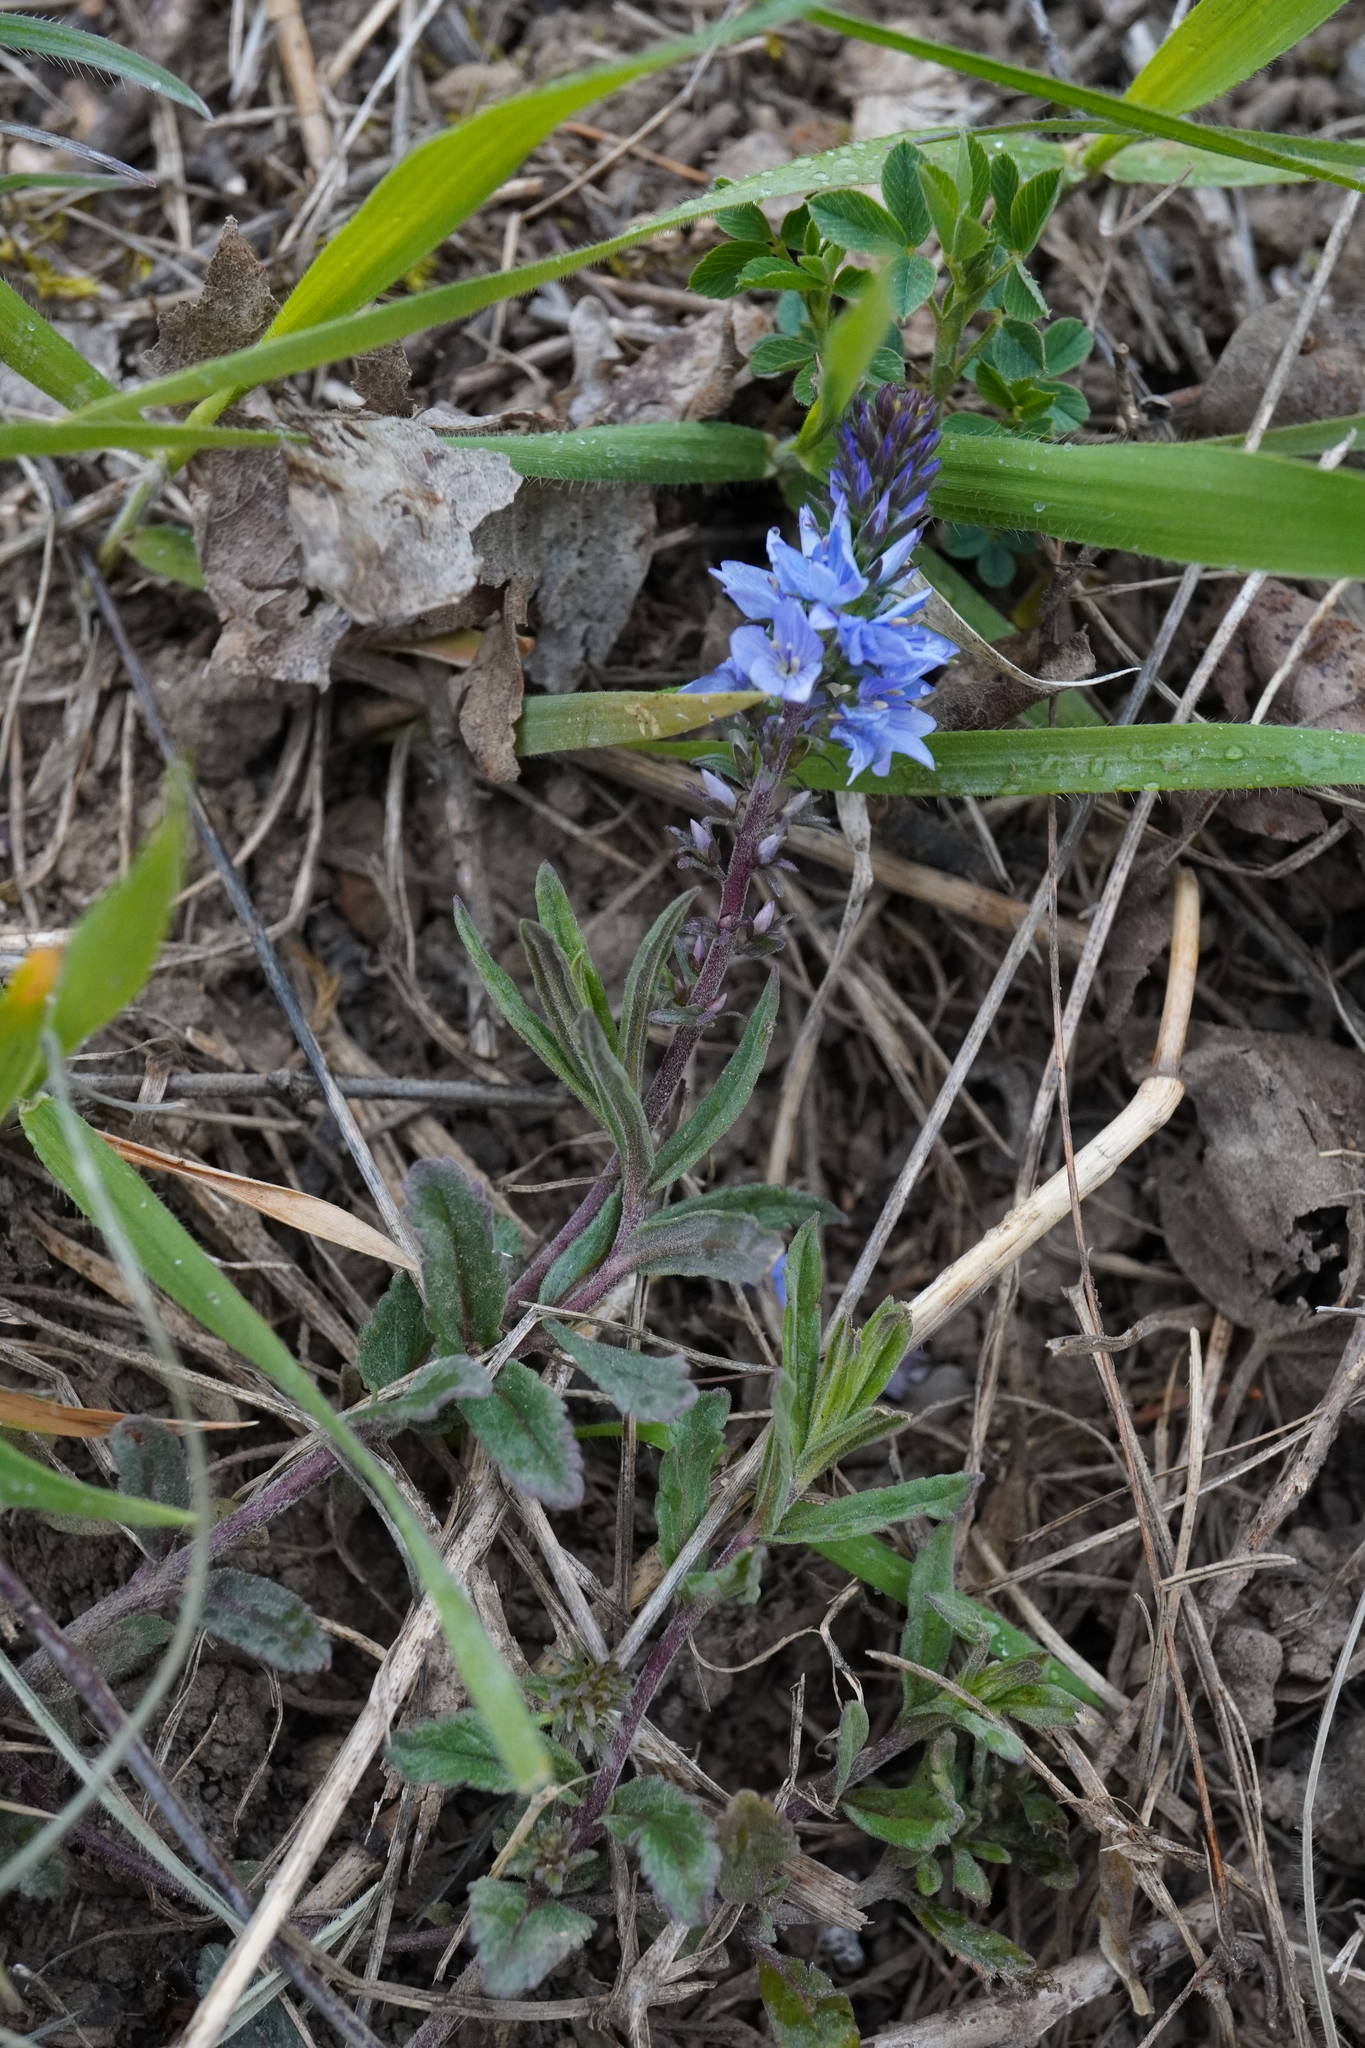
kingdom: Plantae
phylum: Tracheophyta
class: Magnoliopsida
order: Lamiales
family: Plantaginaceae
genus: Veronica
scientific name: Veronica prostrata
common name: Prostrate speedwell
